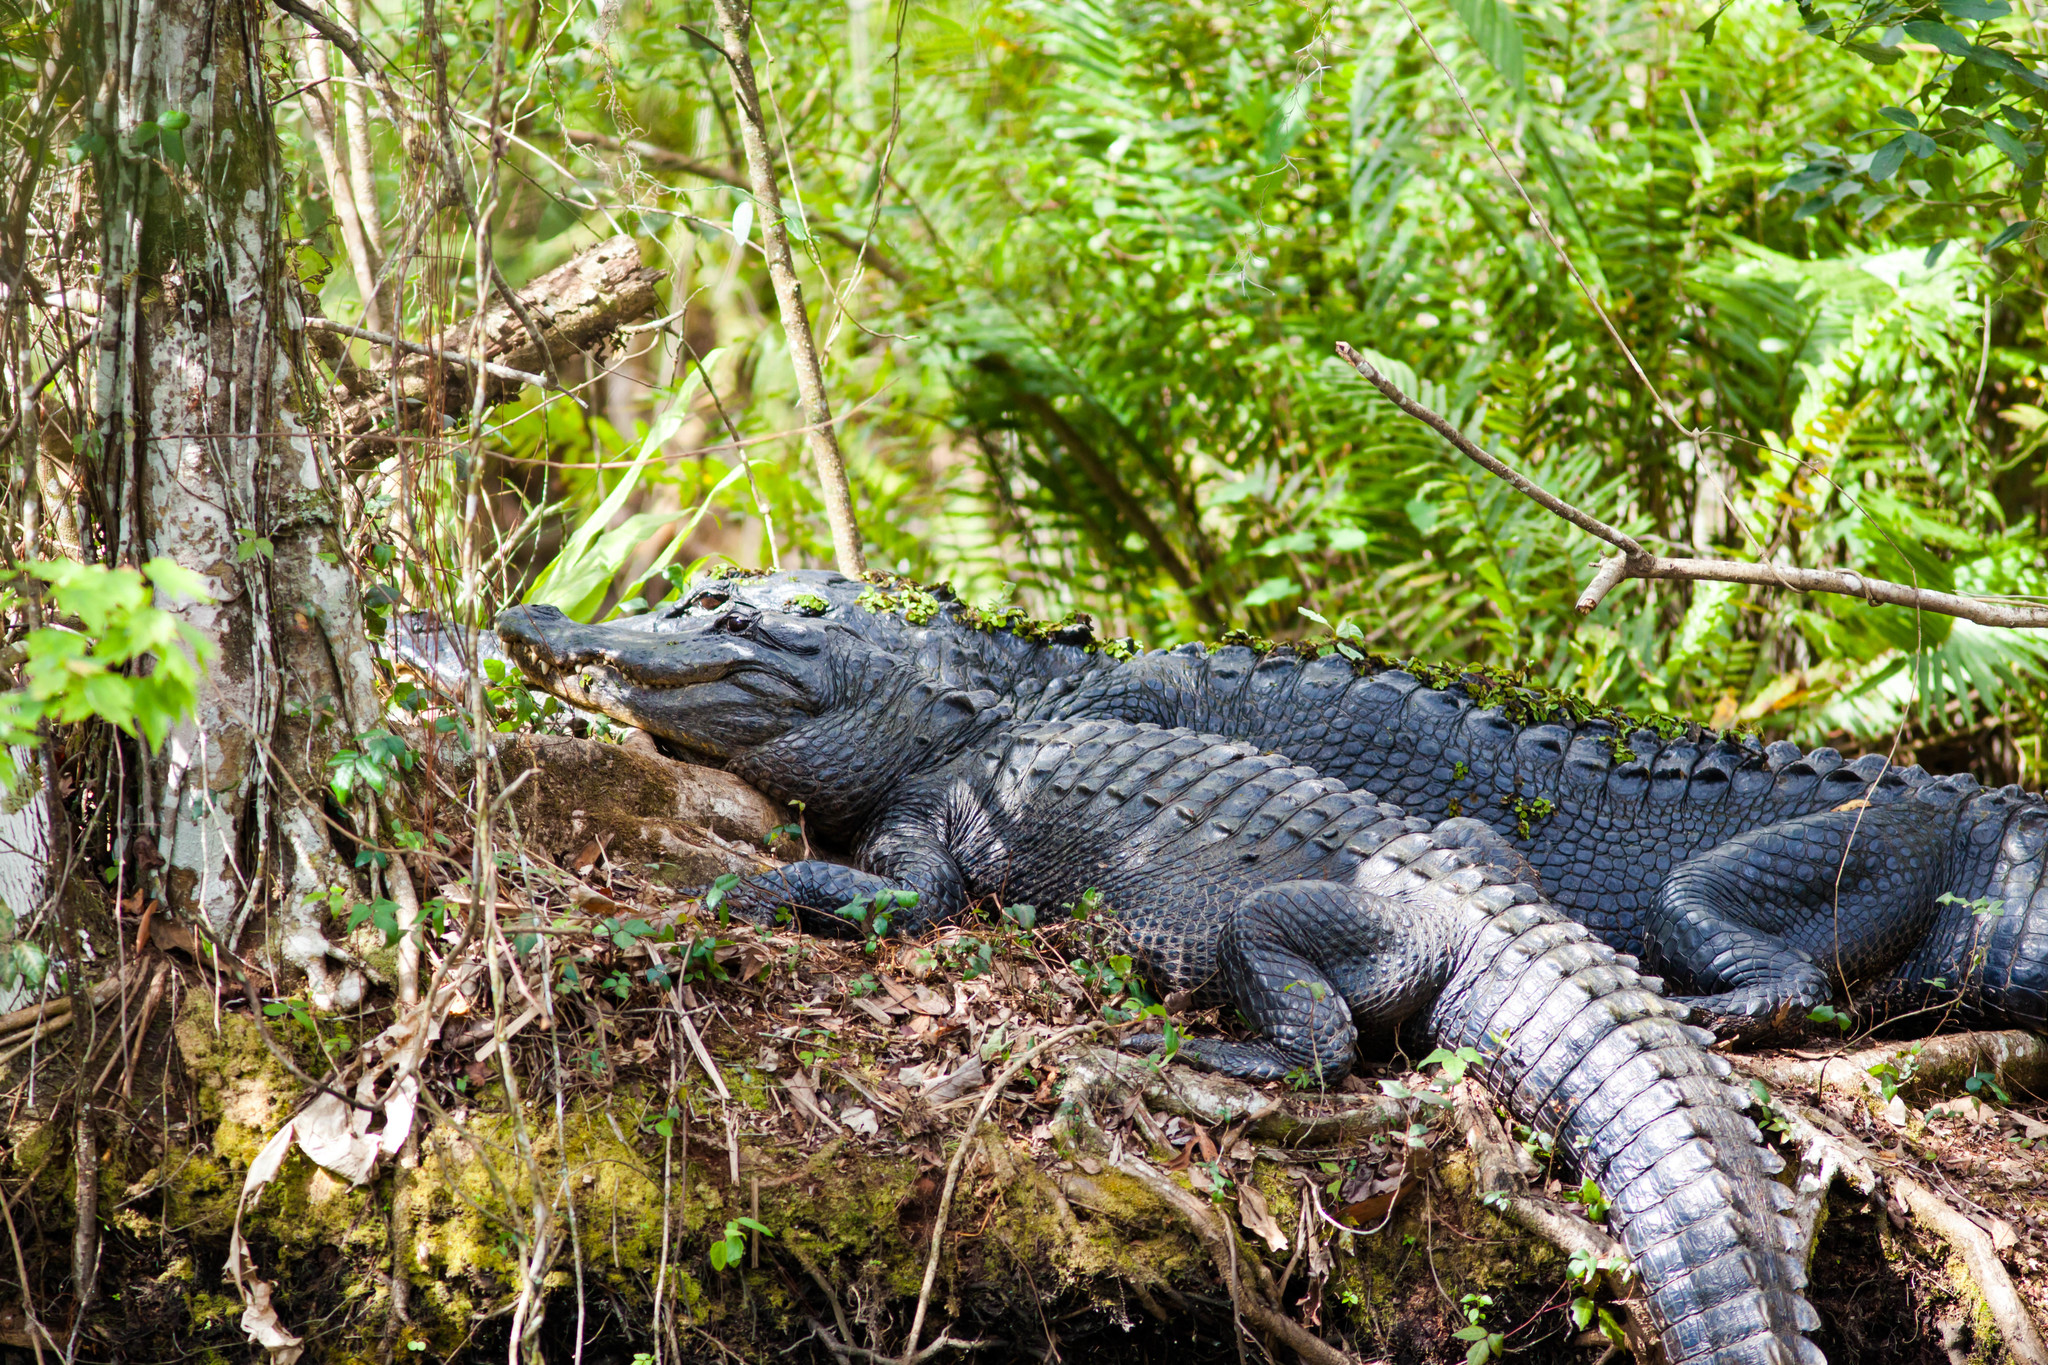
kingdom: Animalia
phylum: Chordata
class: Crocodylia
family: Alligatoridae
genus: Alligator
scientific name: Alligator mississippiensis
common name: American alligator
